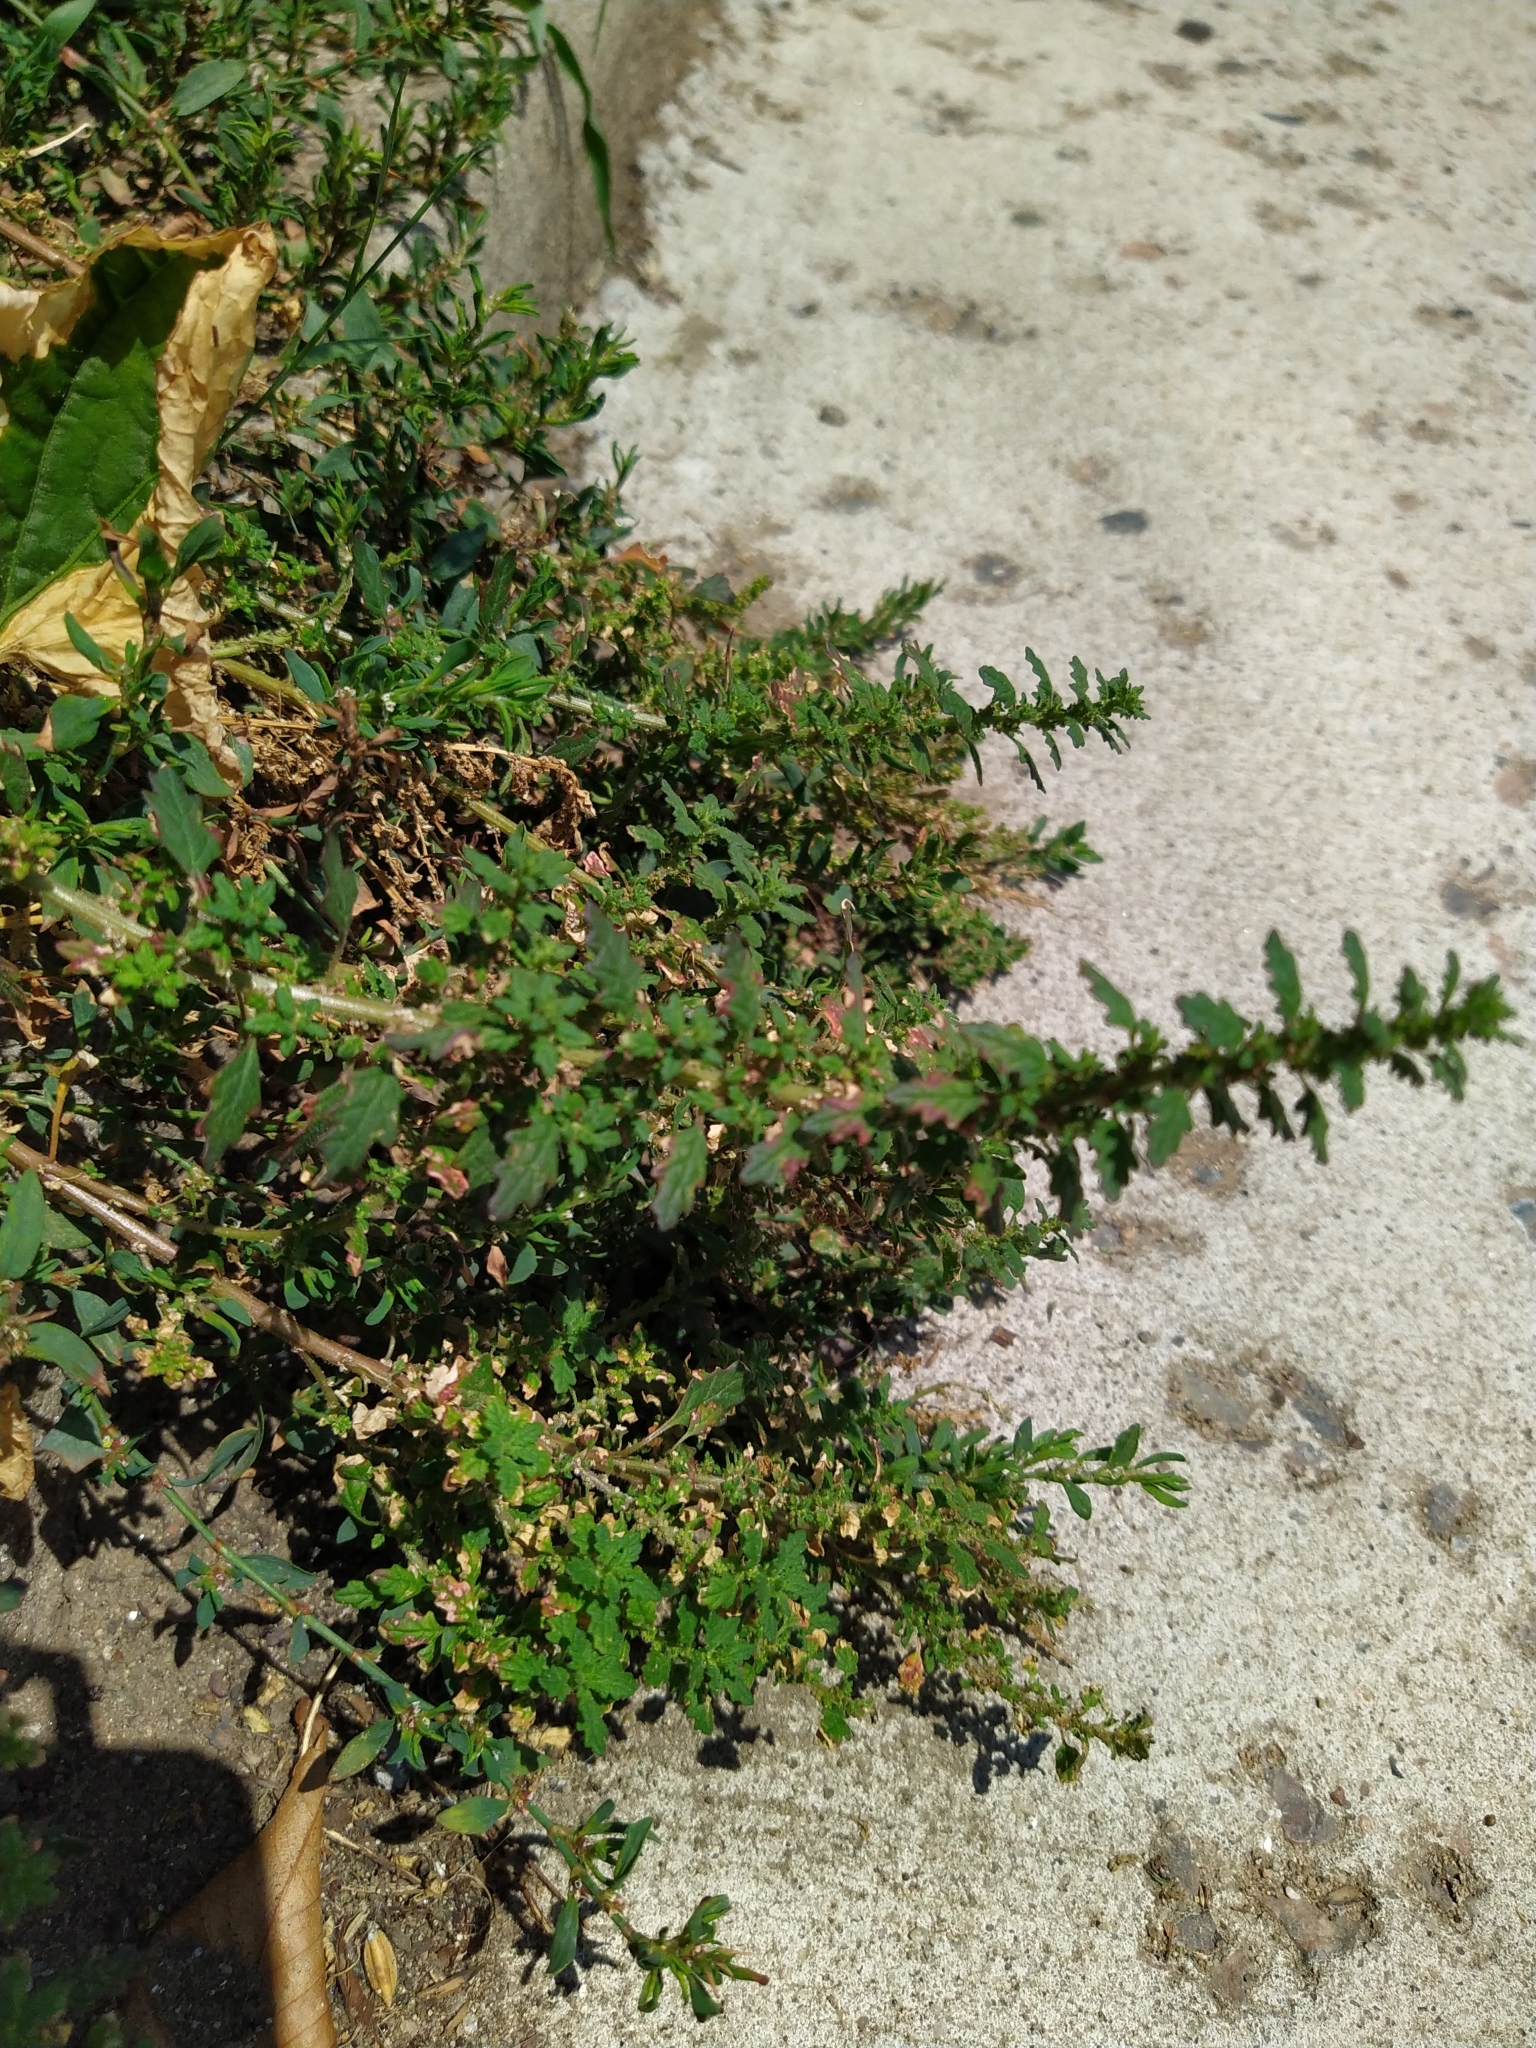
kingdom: Plantae
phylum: Tracheophyta
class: Magnoliopsida
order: Caryophyllales
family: Amaranthaceae
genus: Dysphania
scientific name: Dysphania pumilio
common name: Clammy goosefoot
